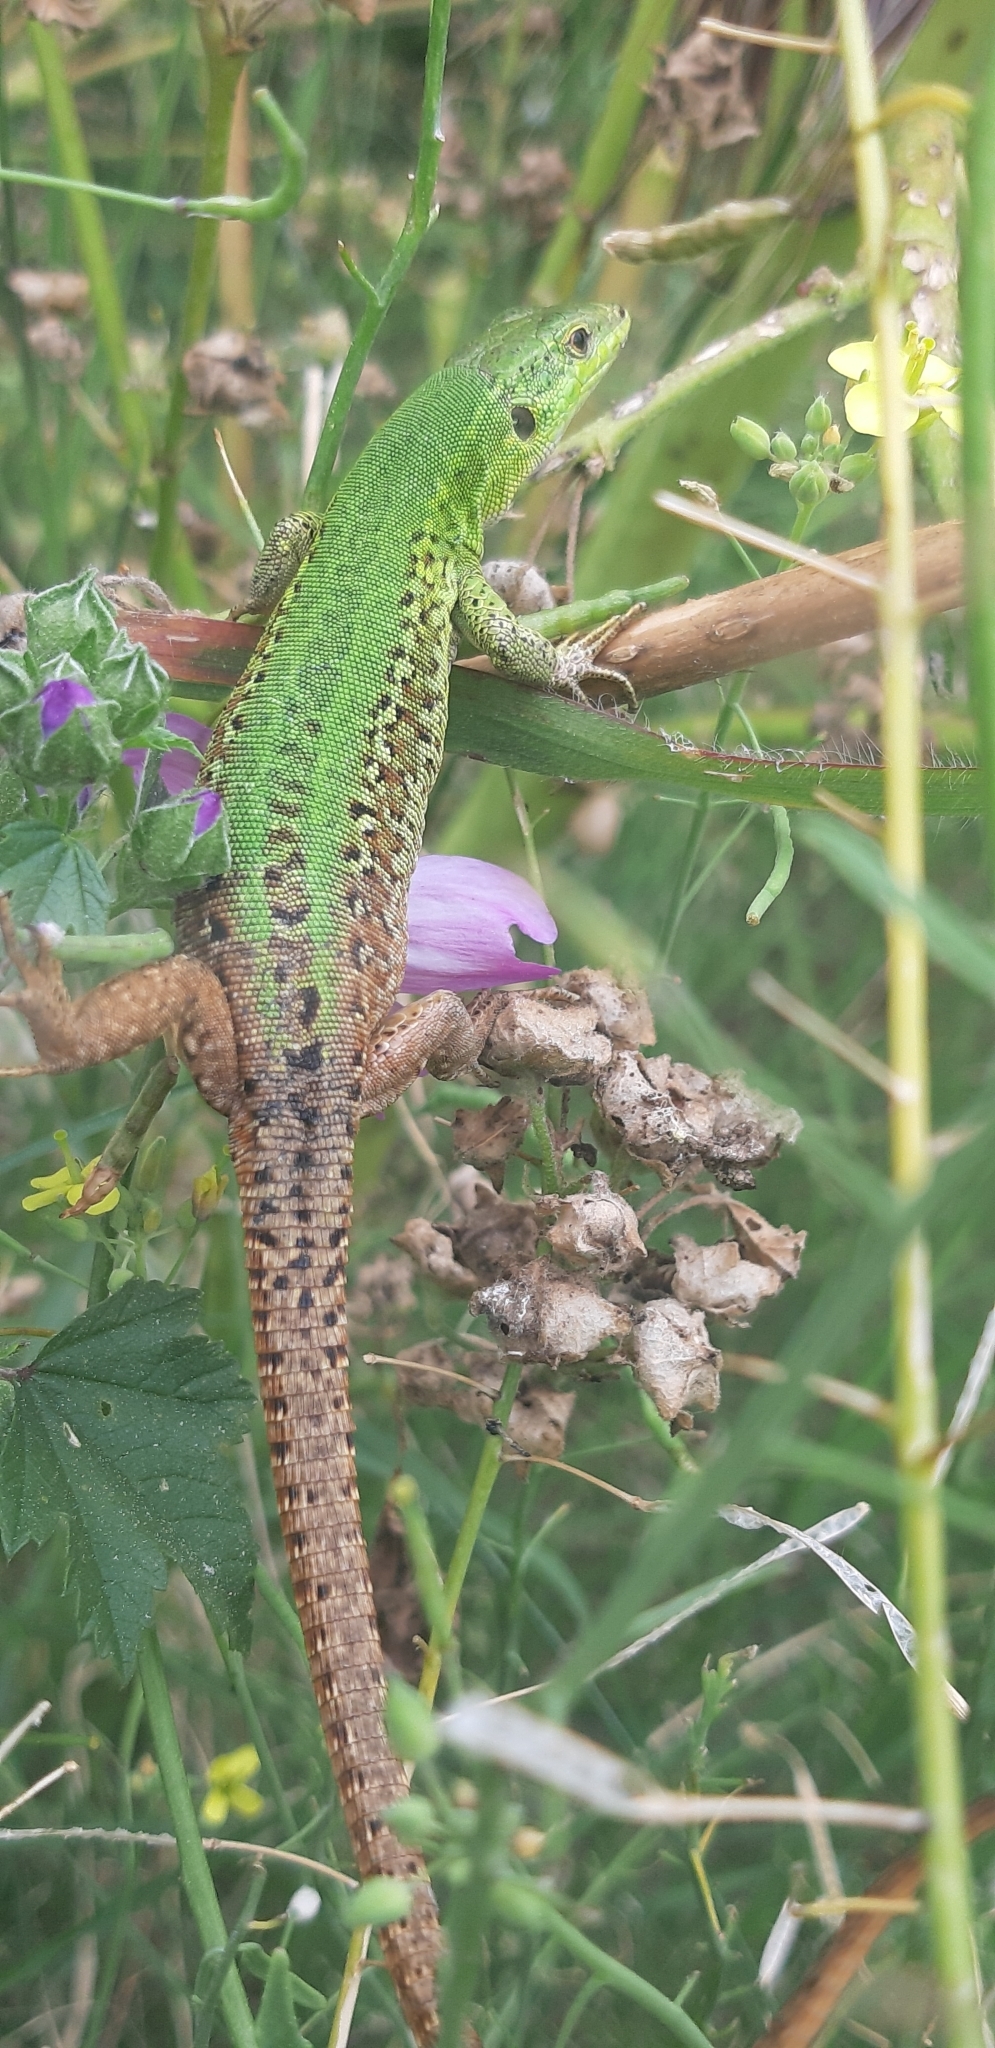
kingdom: Animalia
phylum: Chordata
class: Squamata
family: Lacertidae
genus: Podarcis
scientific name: Podarcis siculus
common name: Italian wall lizard
